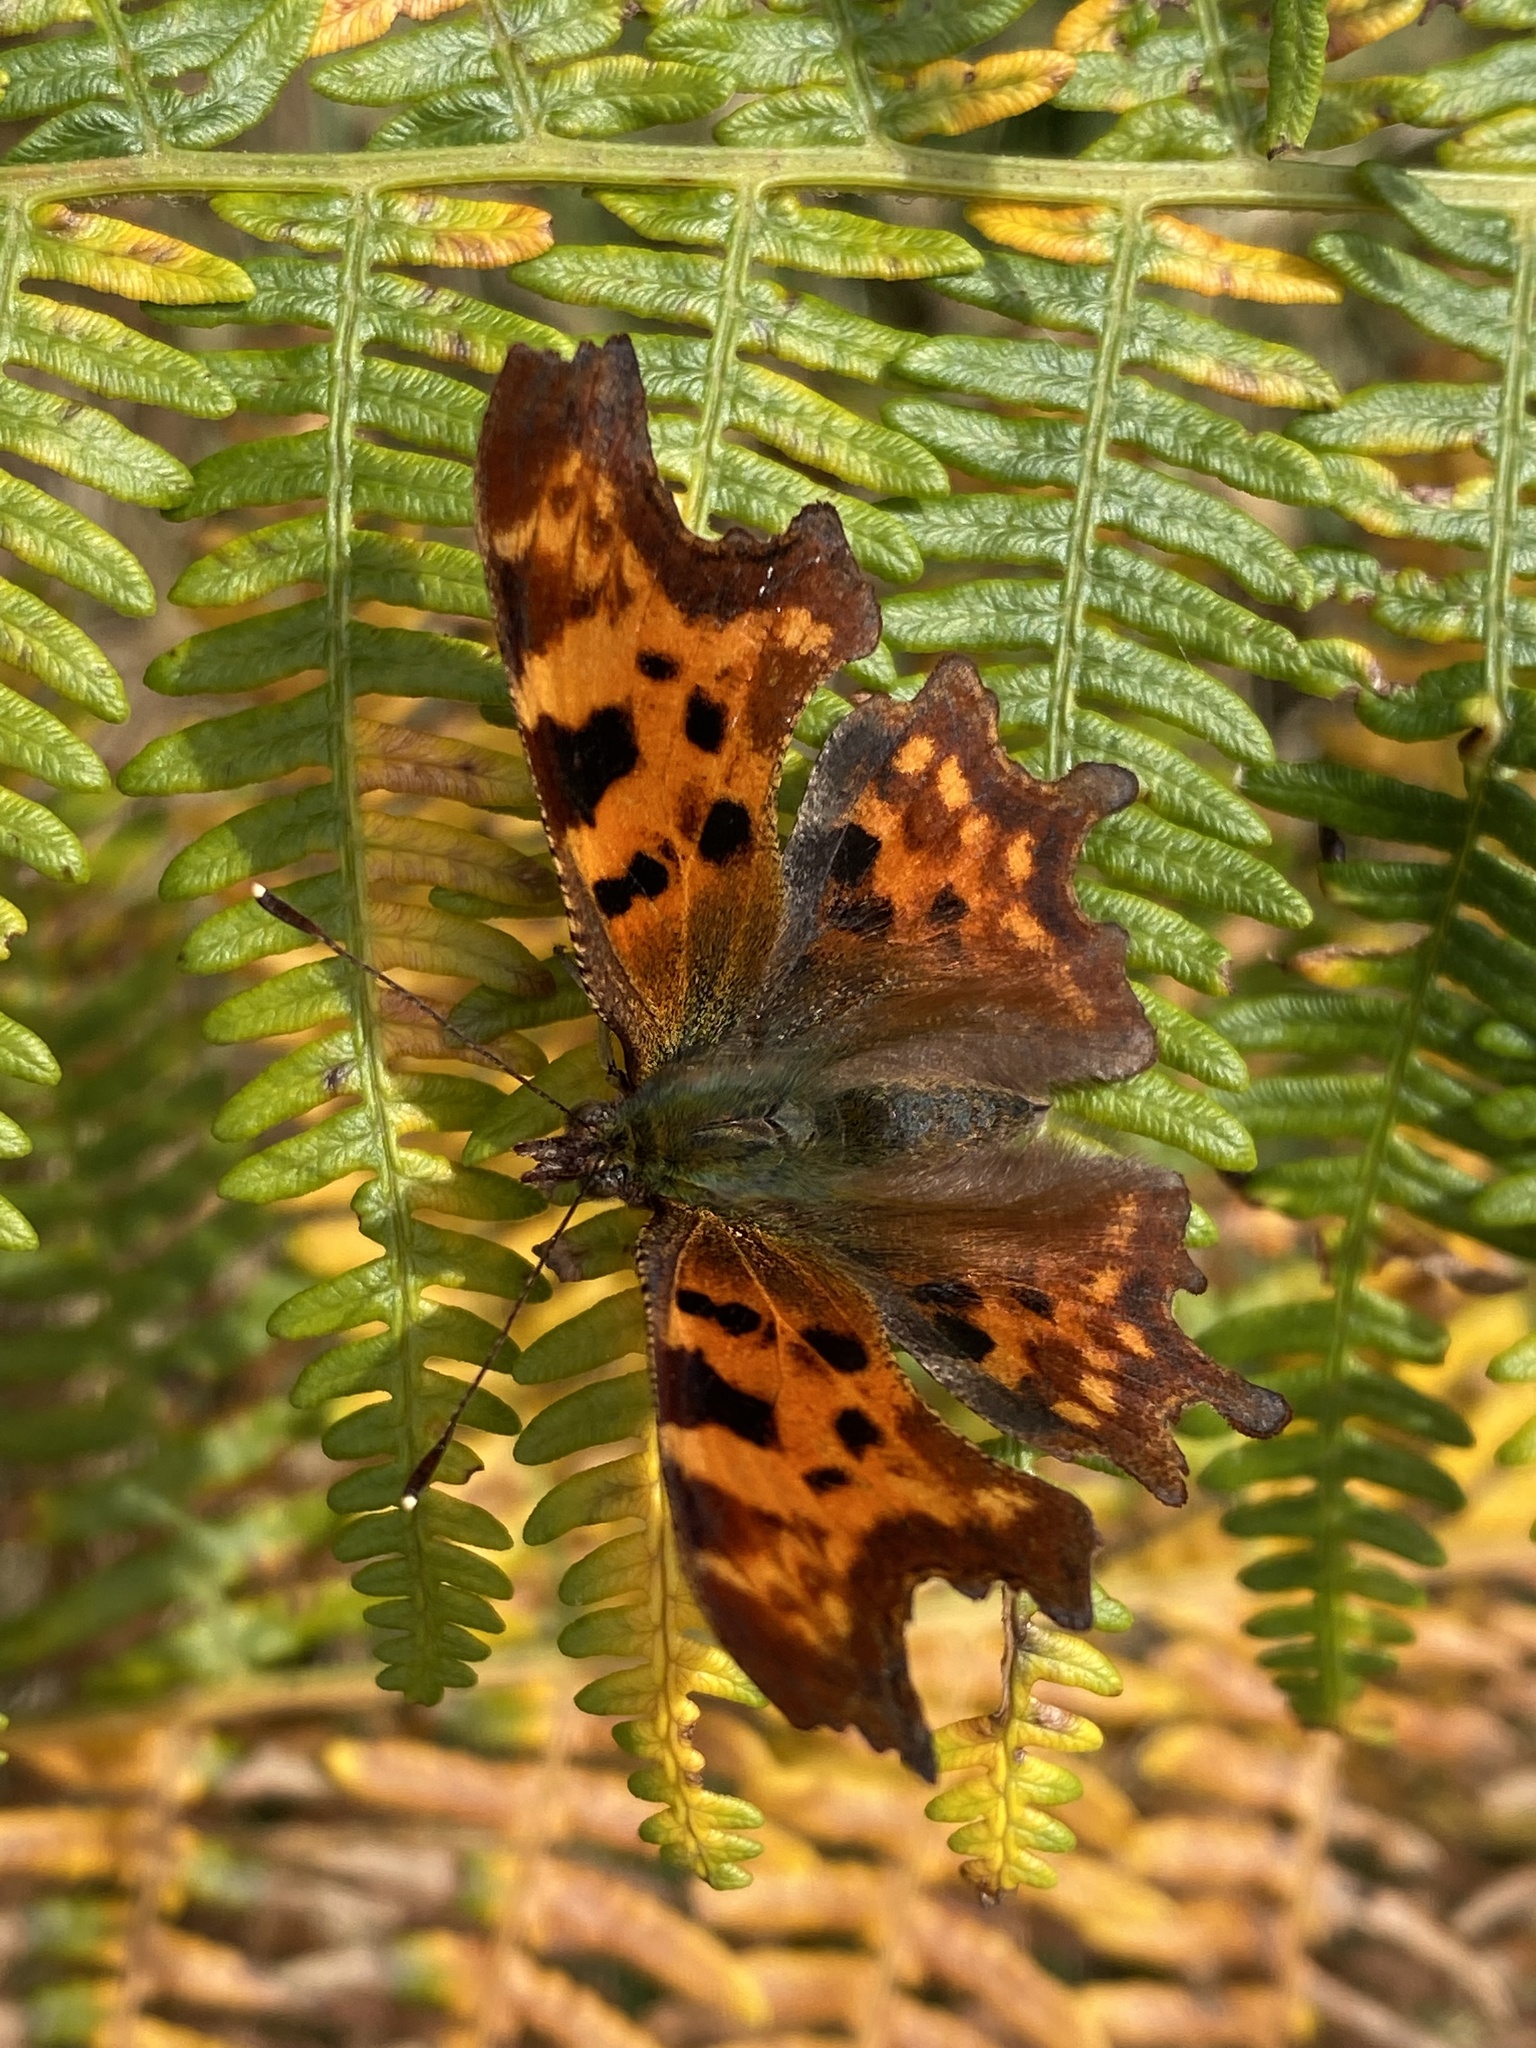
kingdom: Animalia
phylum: Arthropoda
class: Insecta
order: Lepidoptera
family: Nymphalidae
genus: Polygonia
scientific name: Polygonia c-album
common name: Comma
